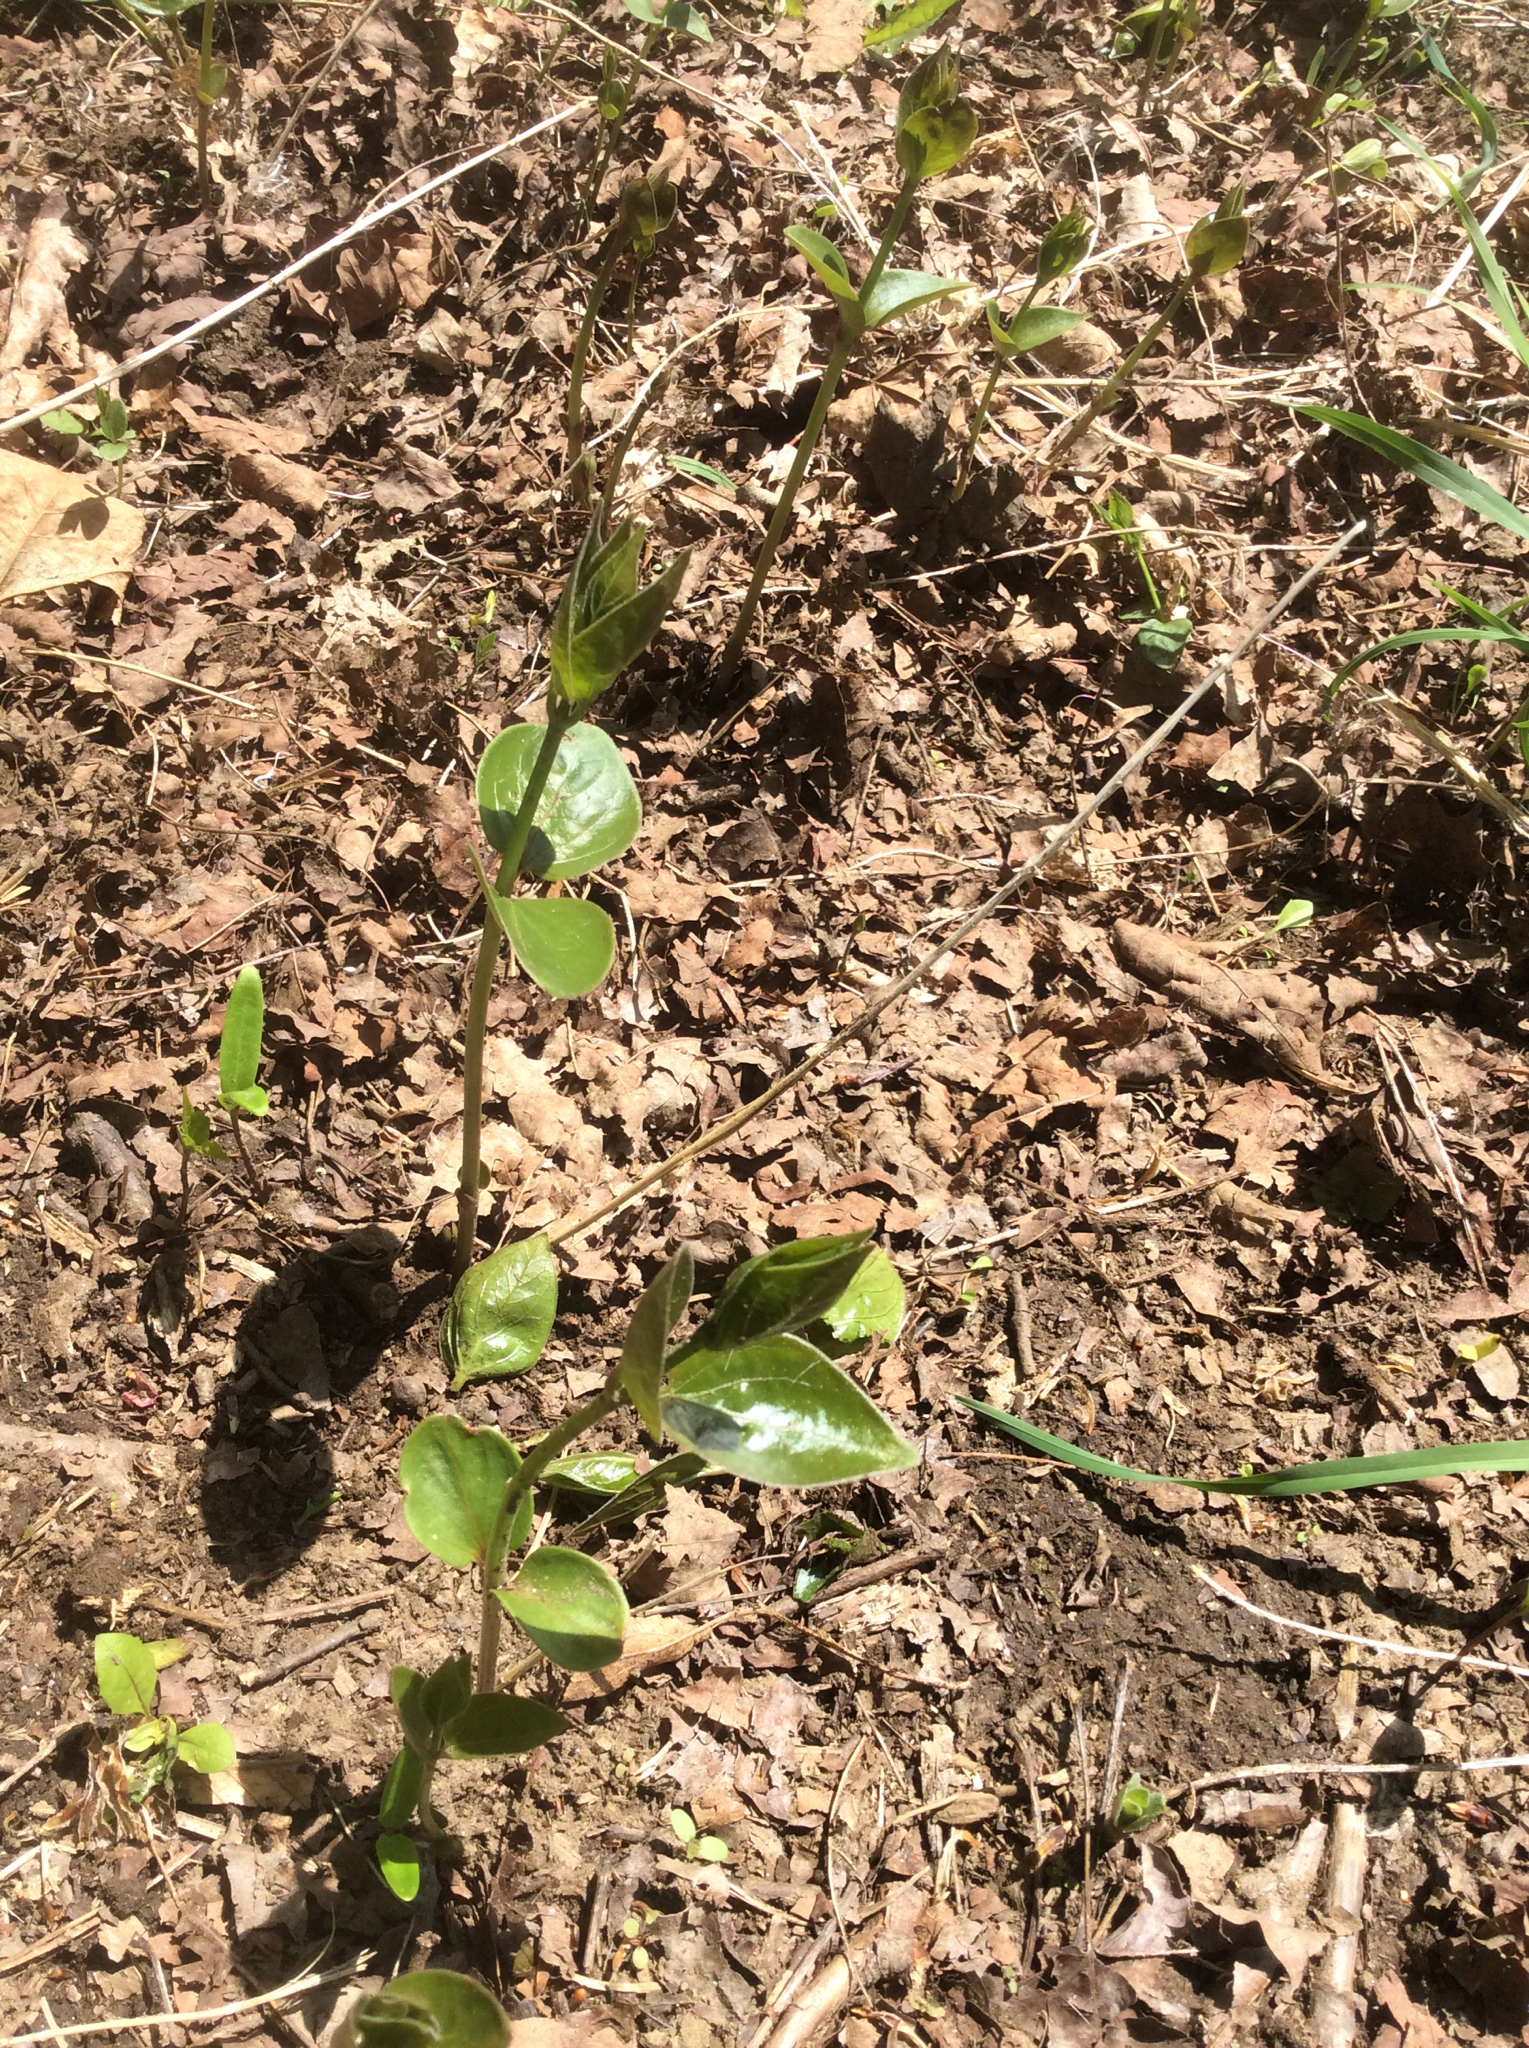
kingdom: Plantae
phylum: Tracheophyta
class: Magnoliopsida
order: Gentianales
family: Apocynaceae
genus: Vincetoxicum
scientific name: Vincetoxicum nigrum
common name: Black swallow-wort
